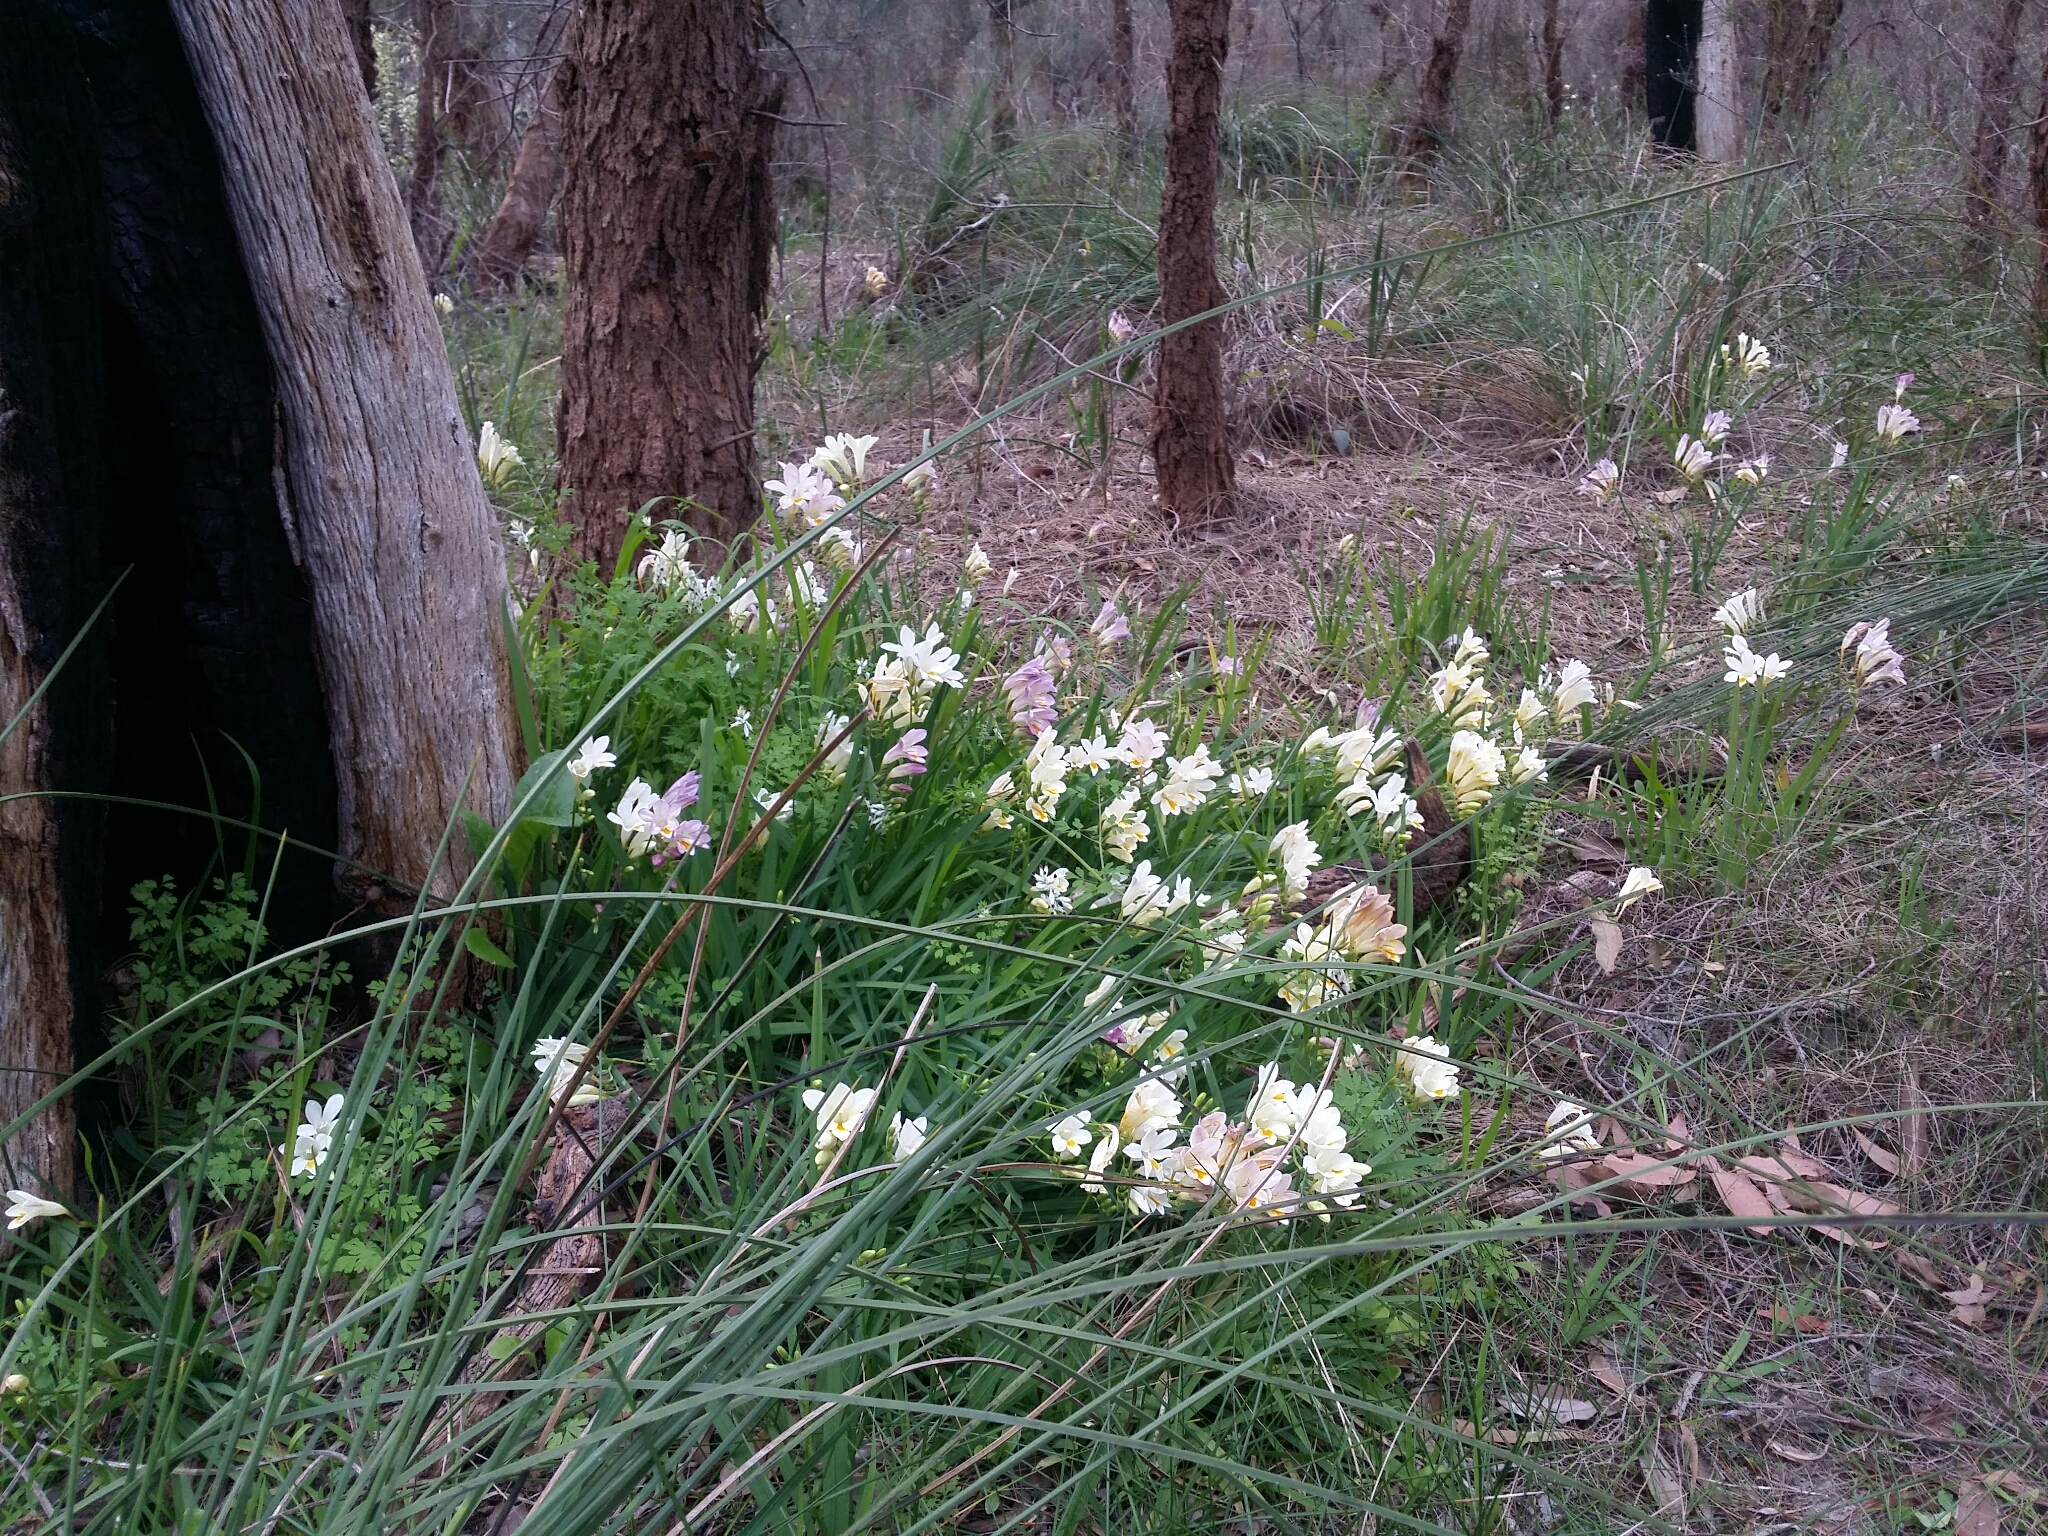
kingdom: Plantae
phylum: Tracheophyta
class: Liliopsida
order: Asparagales
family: Iridaceae
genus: Freesia
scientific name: Freesia
